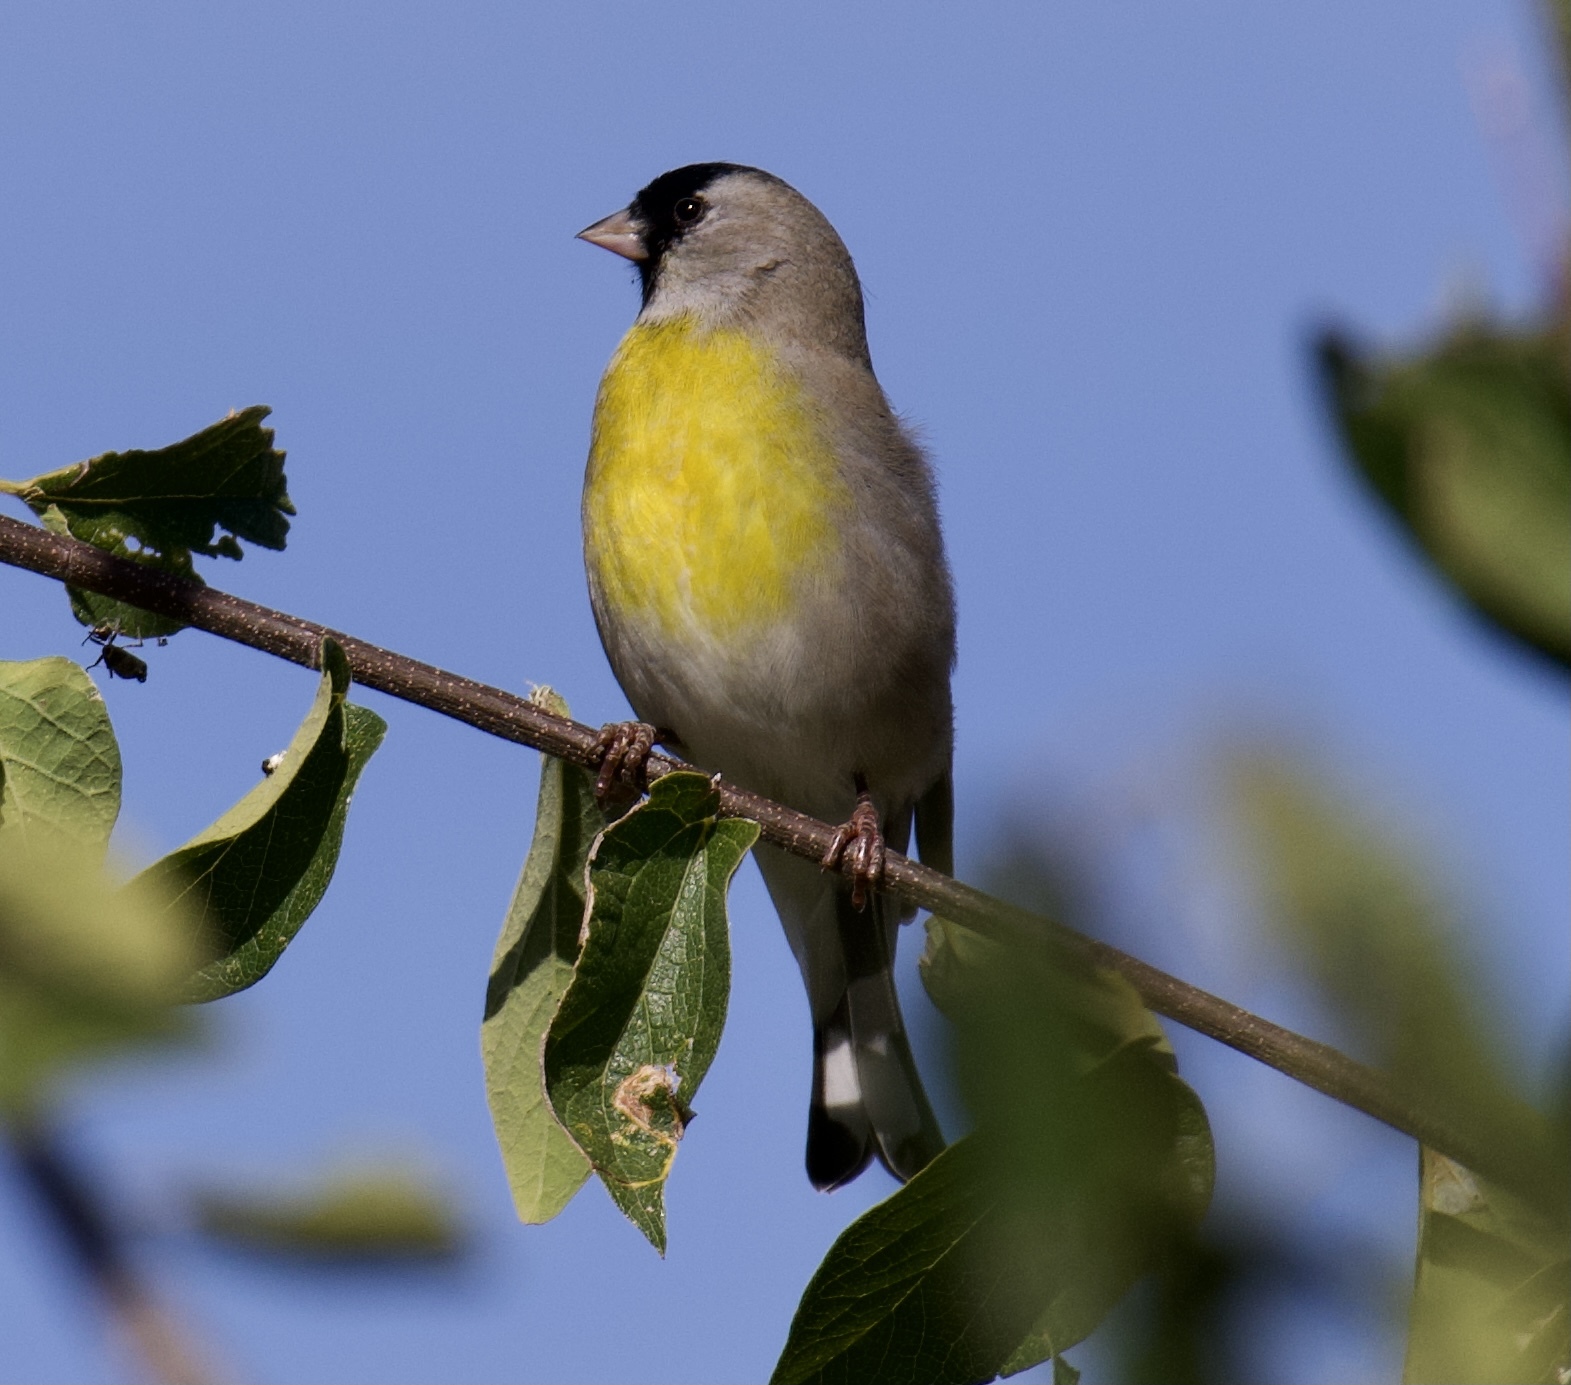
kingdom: Animalia
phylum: Chordata
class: Aves
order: Passeriformes
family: Fringillidae
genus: Spinus
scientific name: Spinus lawrencei
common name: Lawrence's goldfinch
